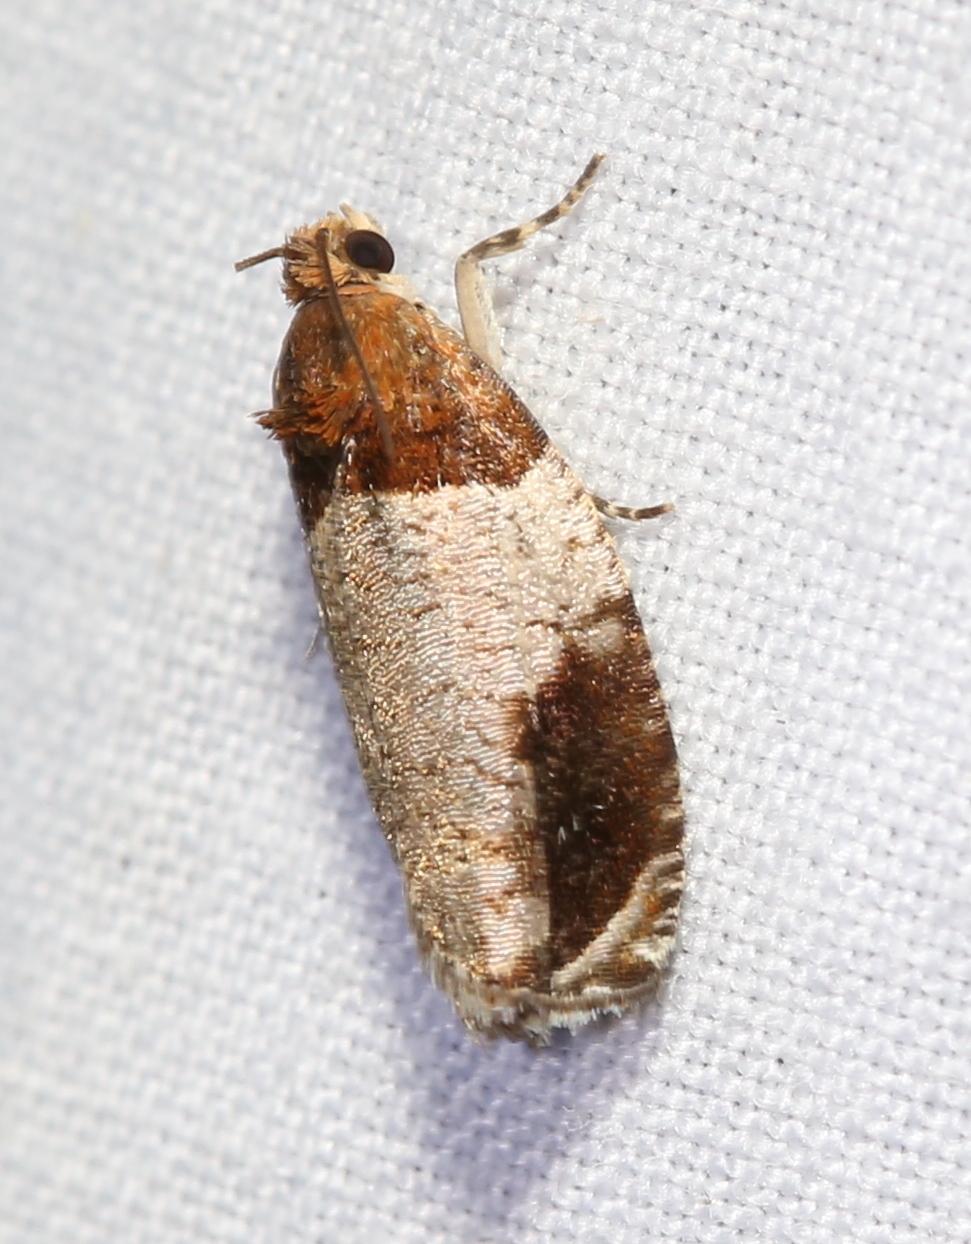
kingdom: Animalia
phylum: Arthropoda
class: Insecta
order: Lepidoptera
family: Tortricidae
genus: Olethreutes
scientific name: Olethreutes ferriferana
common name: Hydrangea leaftier moth
